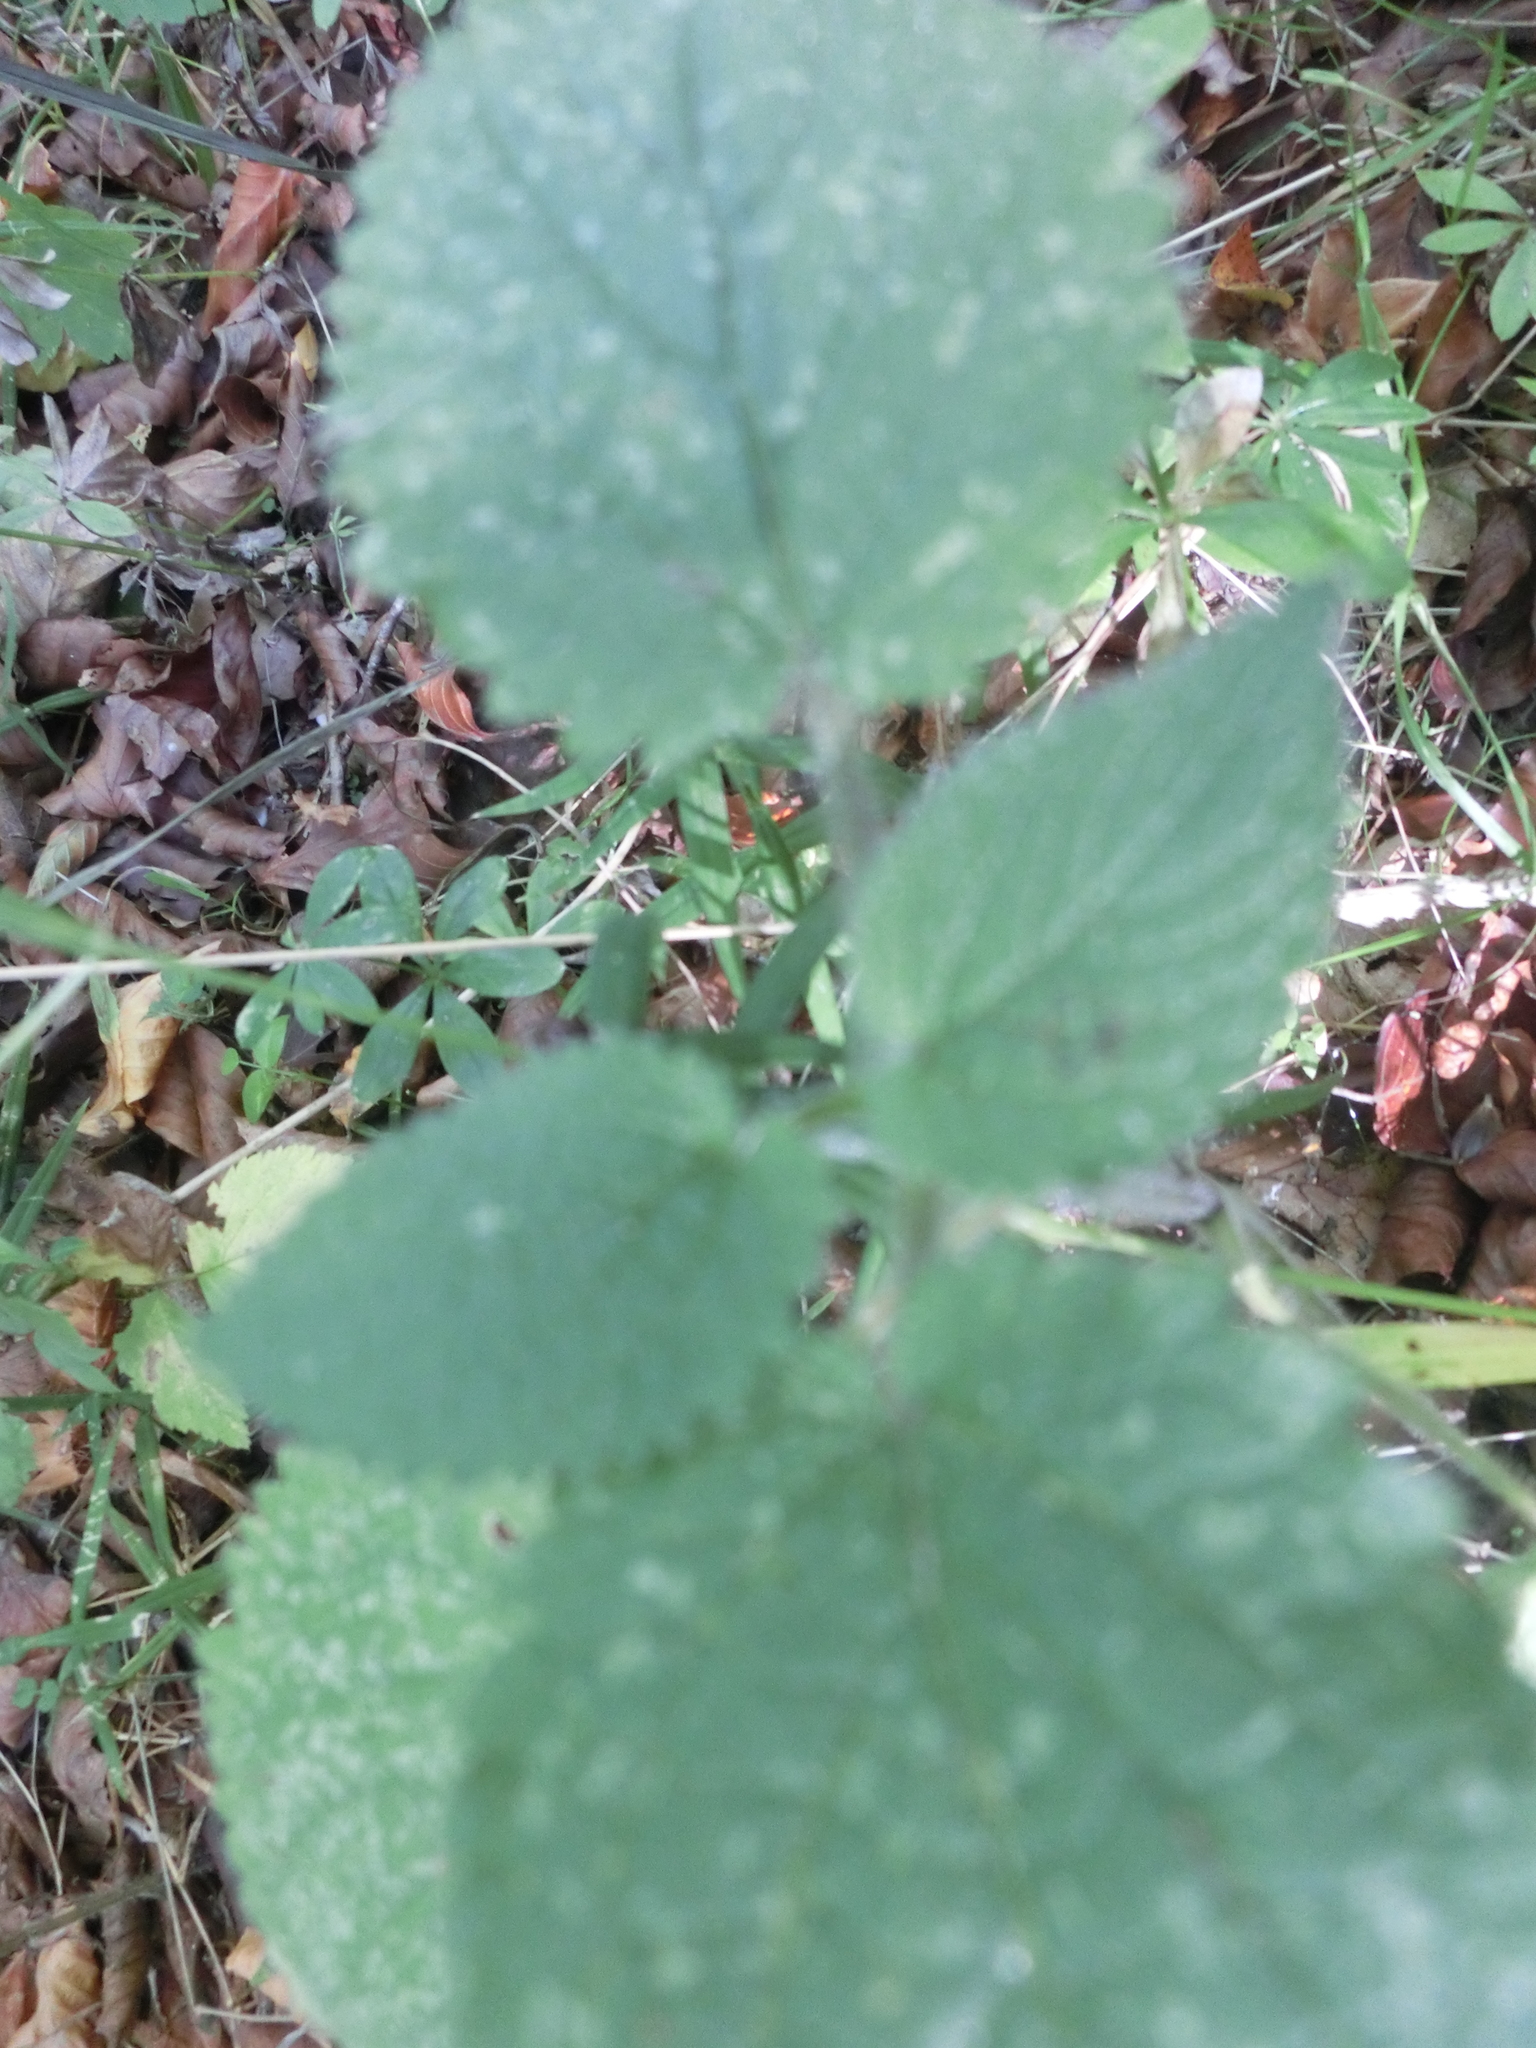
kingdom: Plantae
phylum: Tracheophyta
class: Magnoliopsida
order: Lamiales
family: Lamiaceae
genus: Stachys
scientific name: Stachys sylvatica
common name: Hedge woundwort
